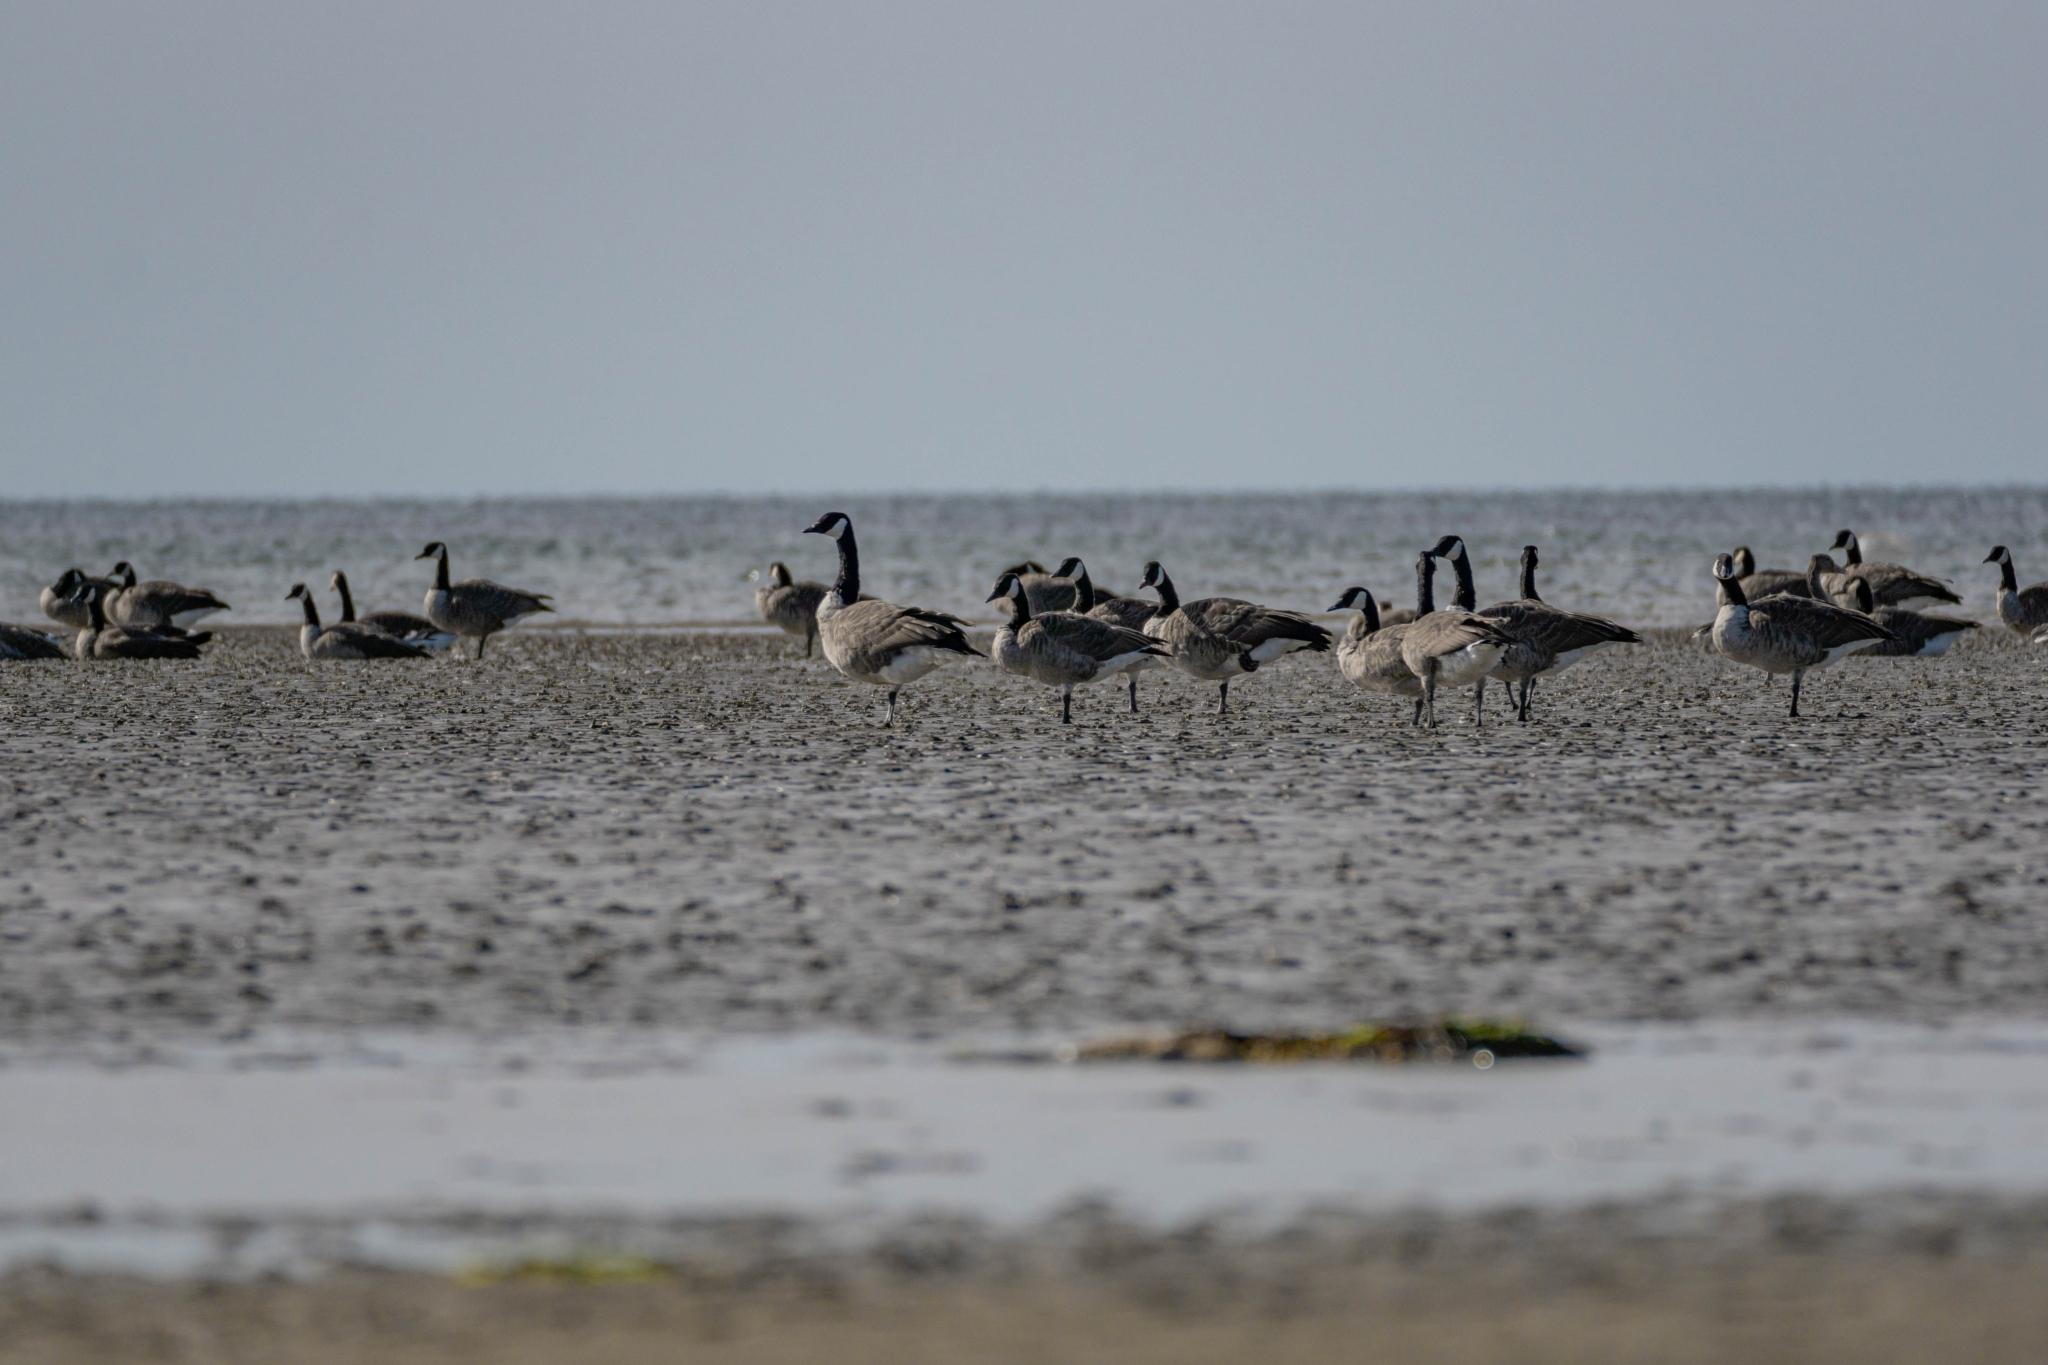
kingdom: Animalia
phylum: Chordata
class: Aves
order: Anseriformes
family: Anatidae
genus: Branta
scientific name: Branta canadensis
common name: Canada goose
